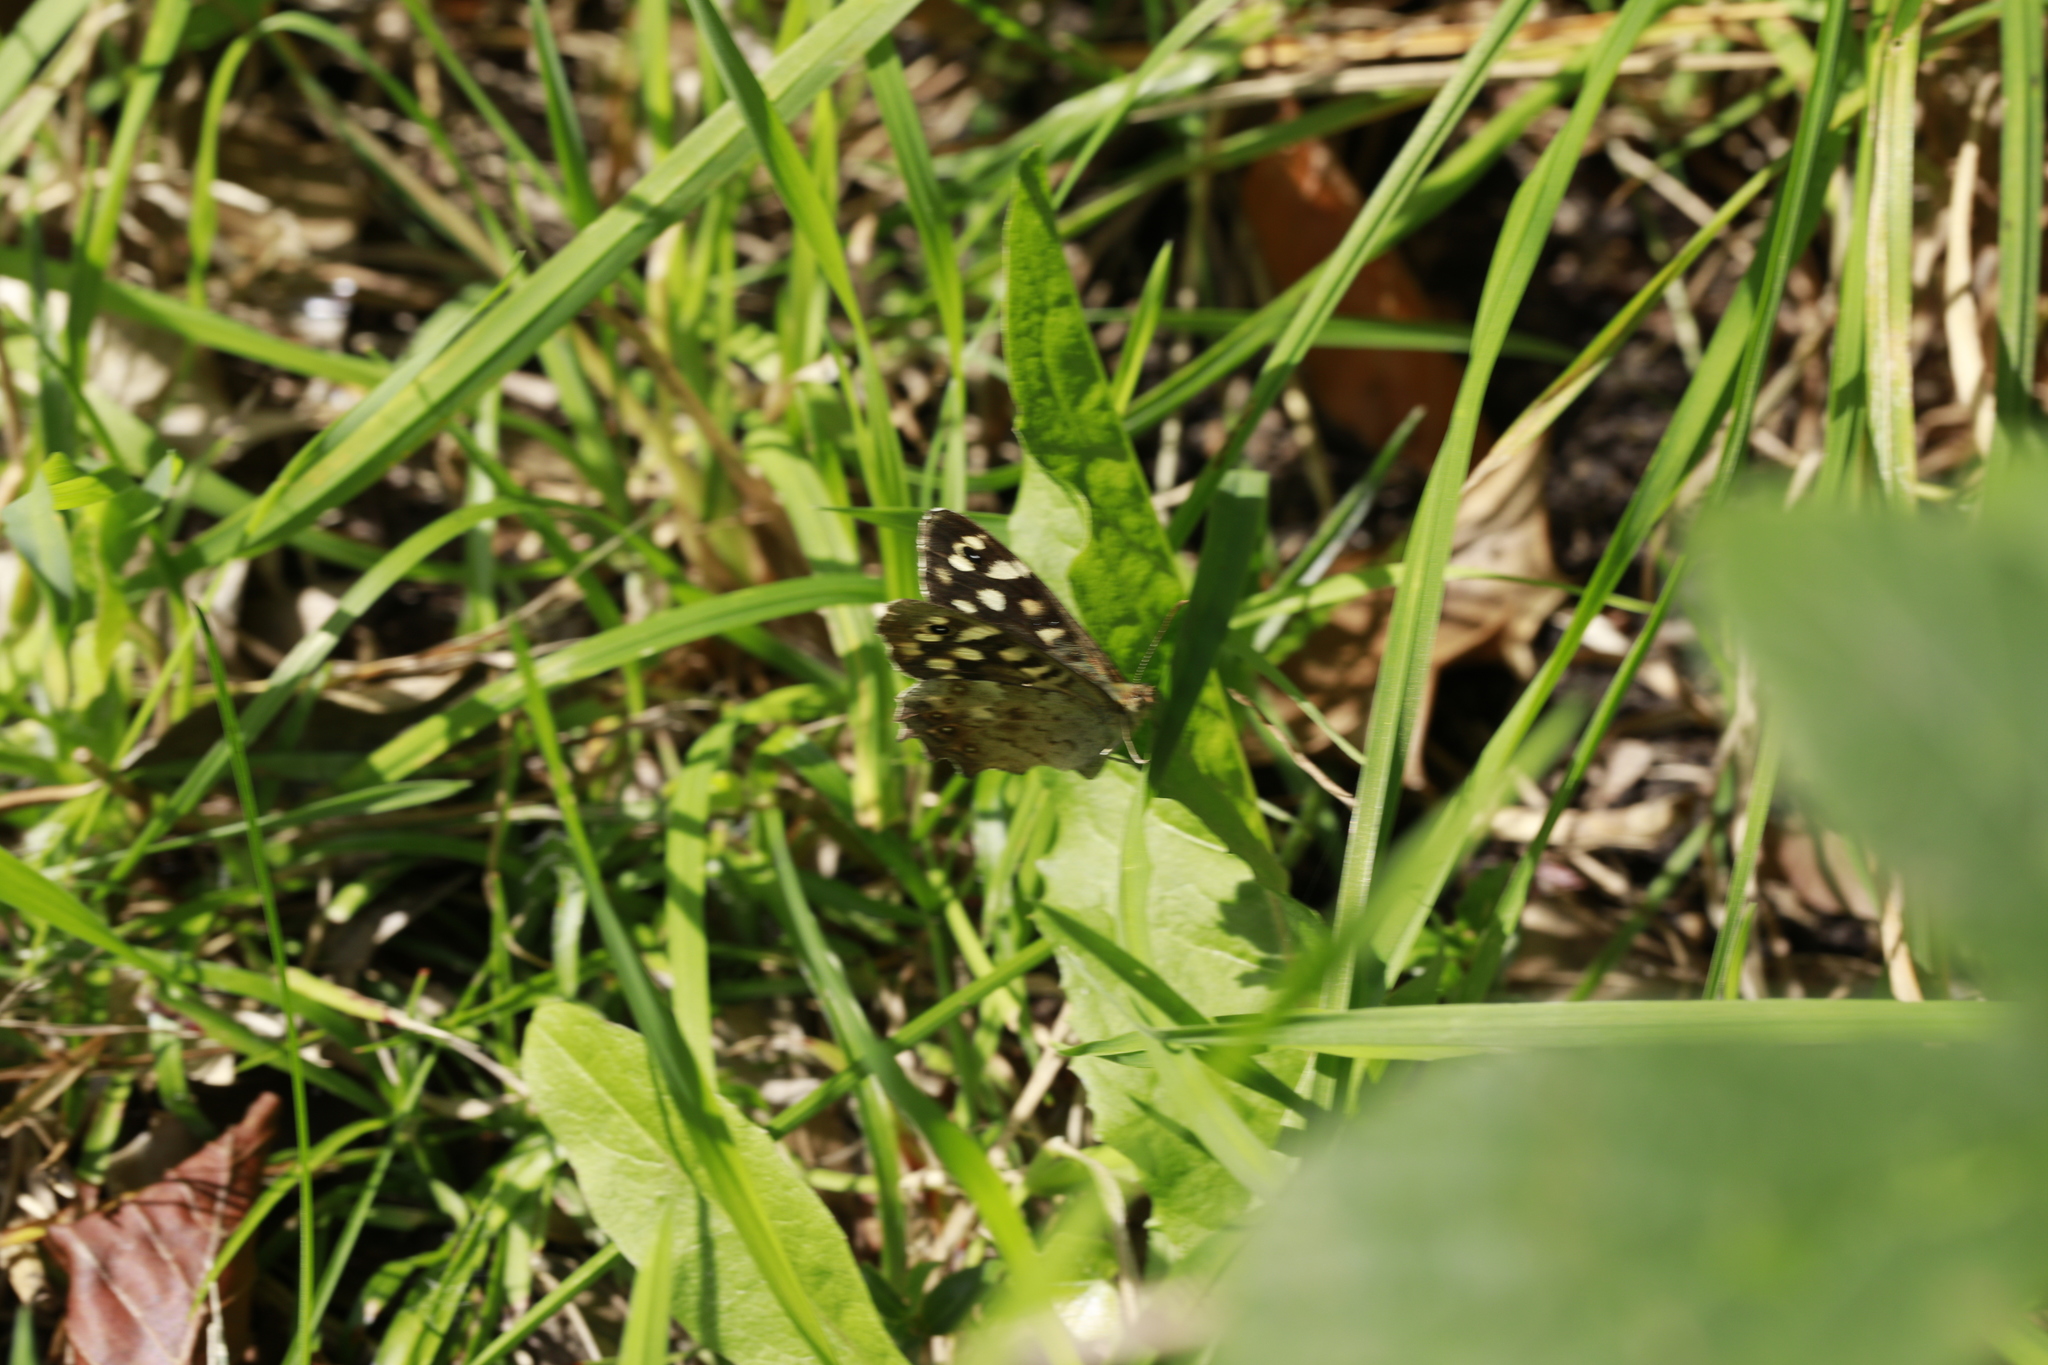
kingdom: Animalia
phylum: Arthropoda
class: Insecta
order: Lepidoptera
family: Nymphalidae
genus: Pararge
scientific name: Pararge aegeria
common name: Speckled wood
